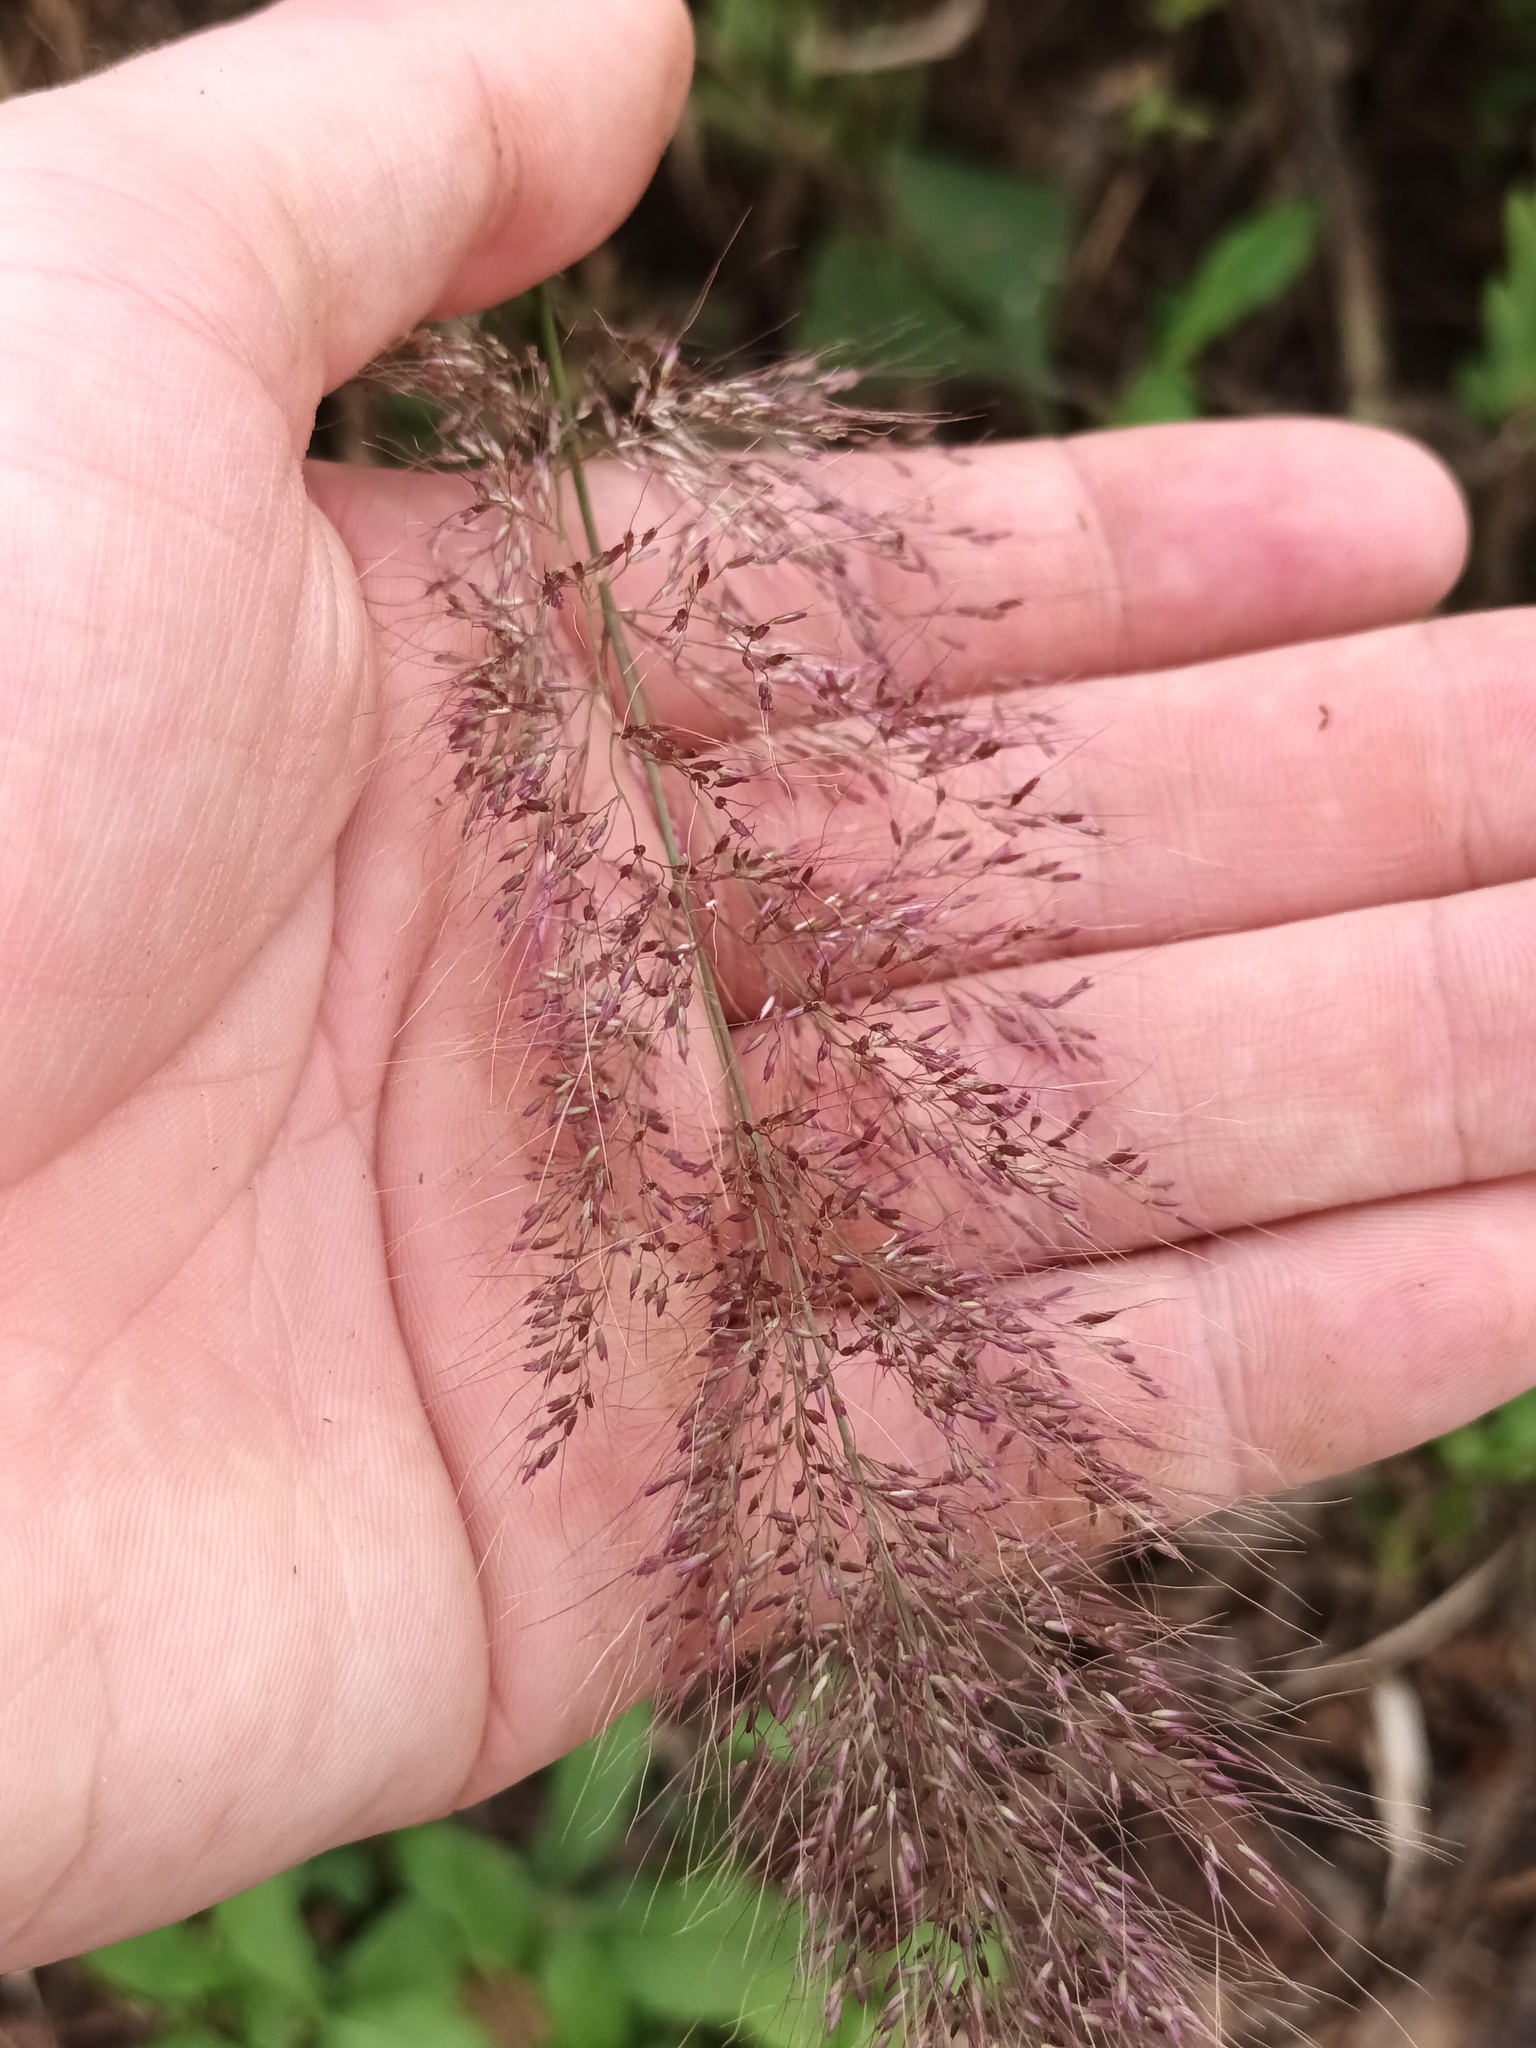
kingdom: Plantae
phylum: Tracheophyta
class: Liliopsida
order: Poales
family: Poaceae
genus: Melinis
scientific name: Melinis minutiflora
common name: Molassesgrass
